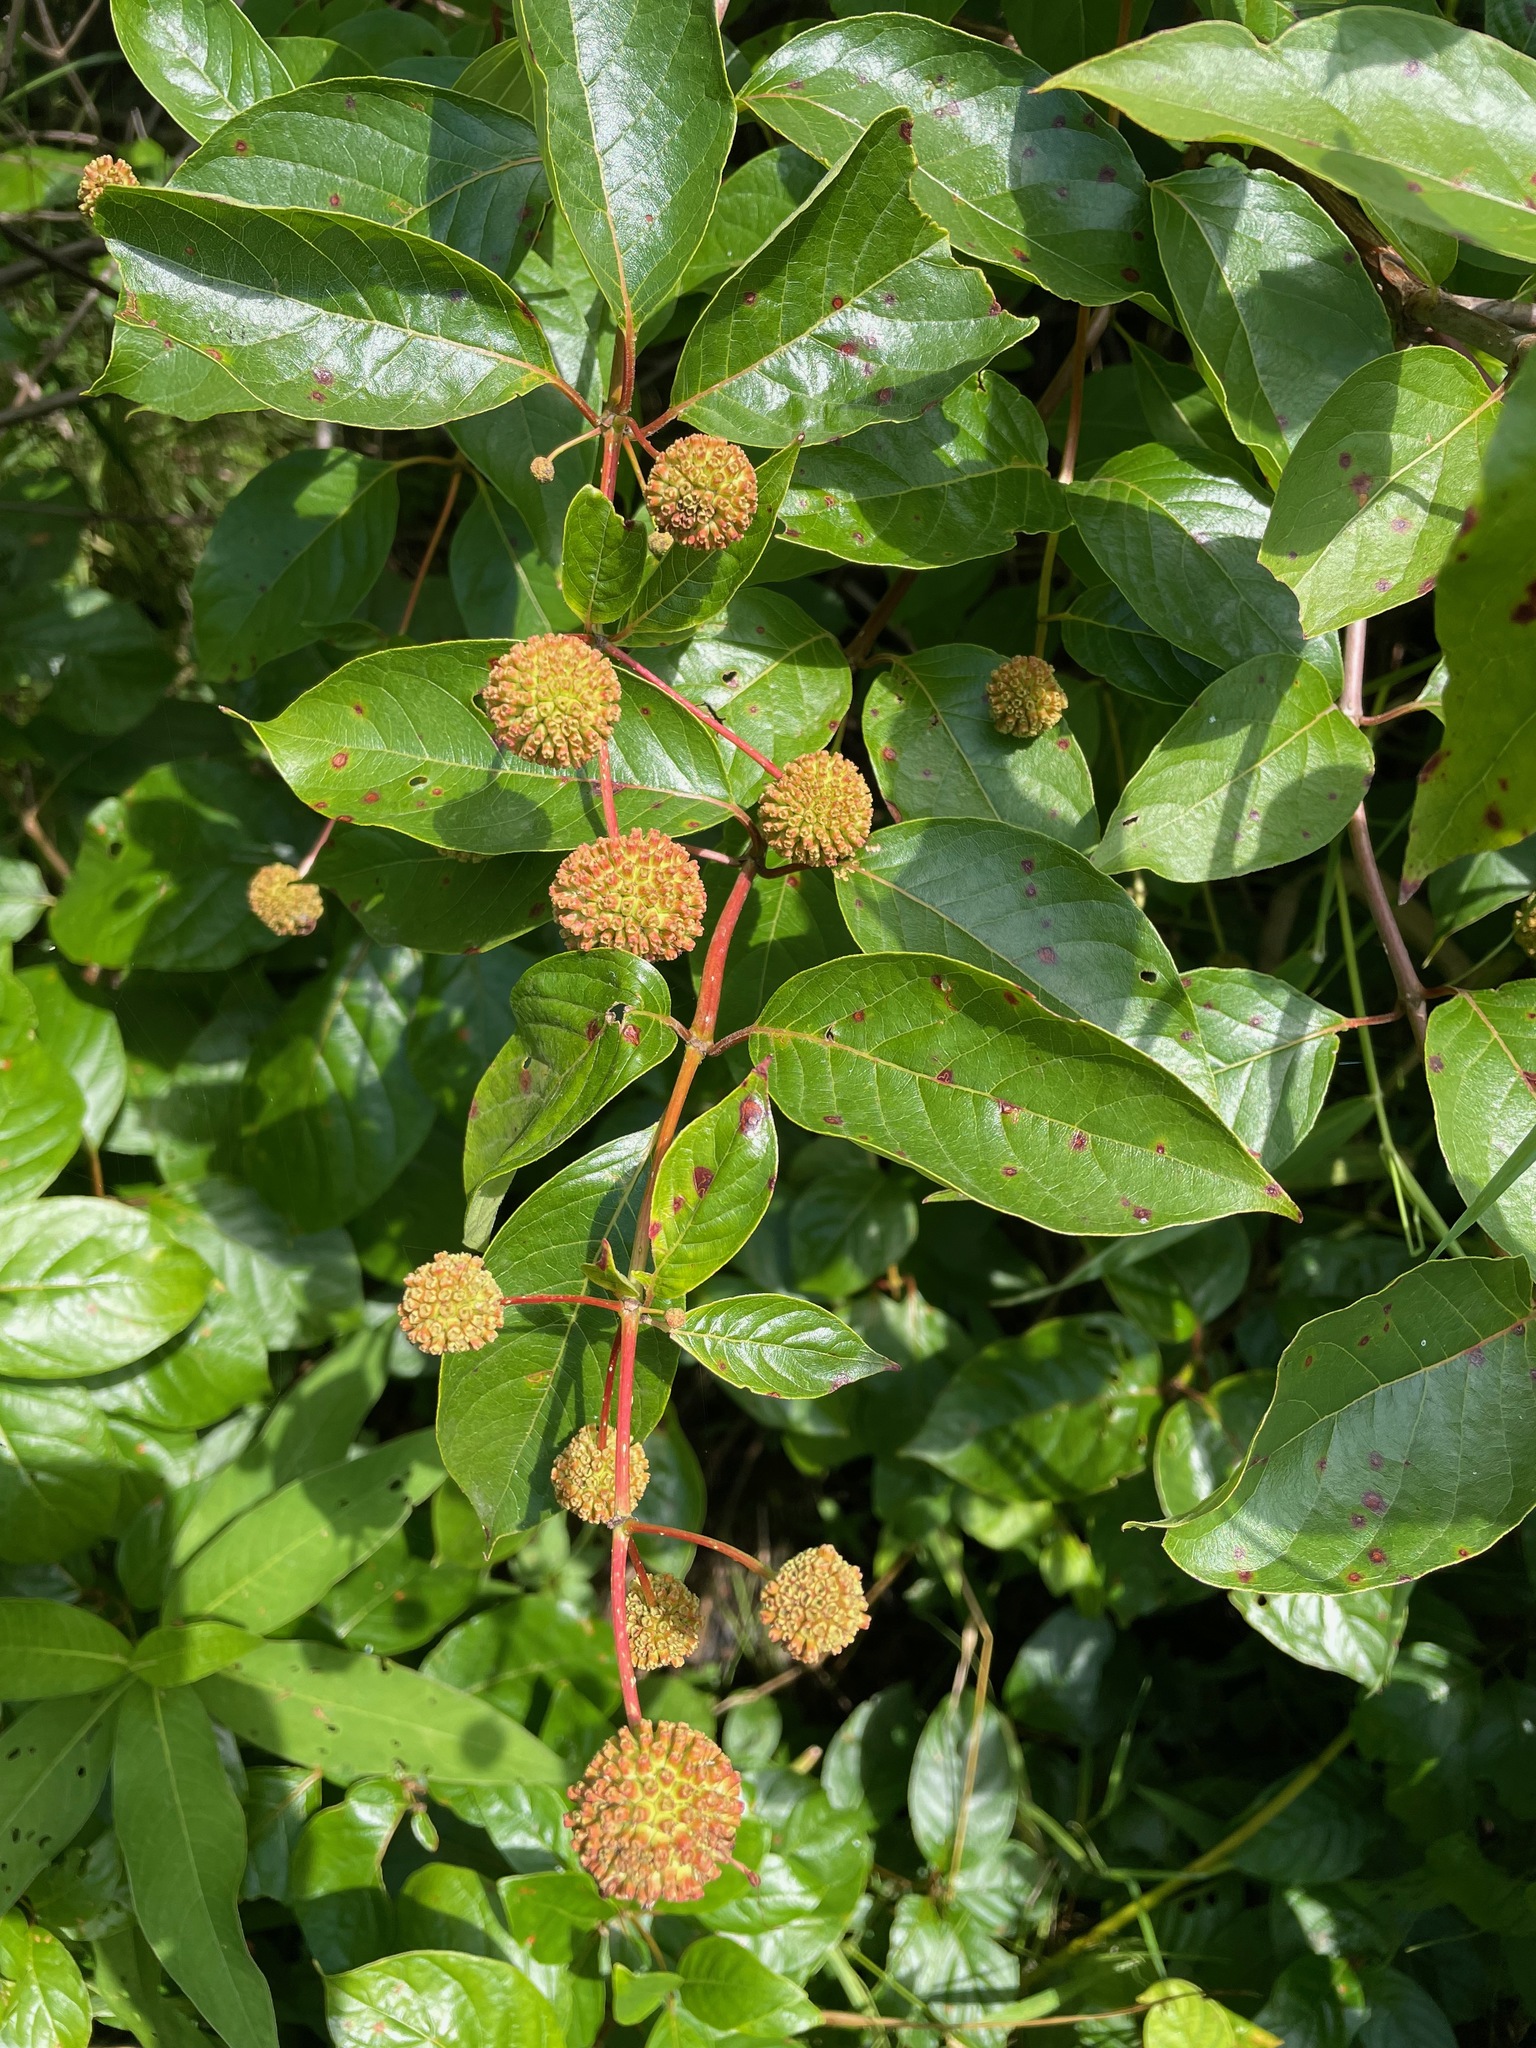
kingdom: Plantae
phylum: Tracheophyta
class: Magnoliopsida
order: Gentianales
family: Rubiaceae
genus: Cephalanthus
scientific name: Cephalanthus occidentalis
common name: Button-willow
